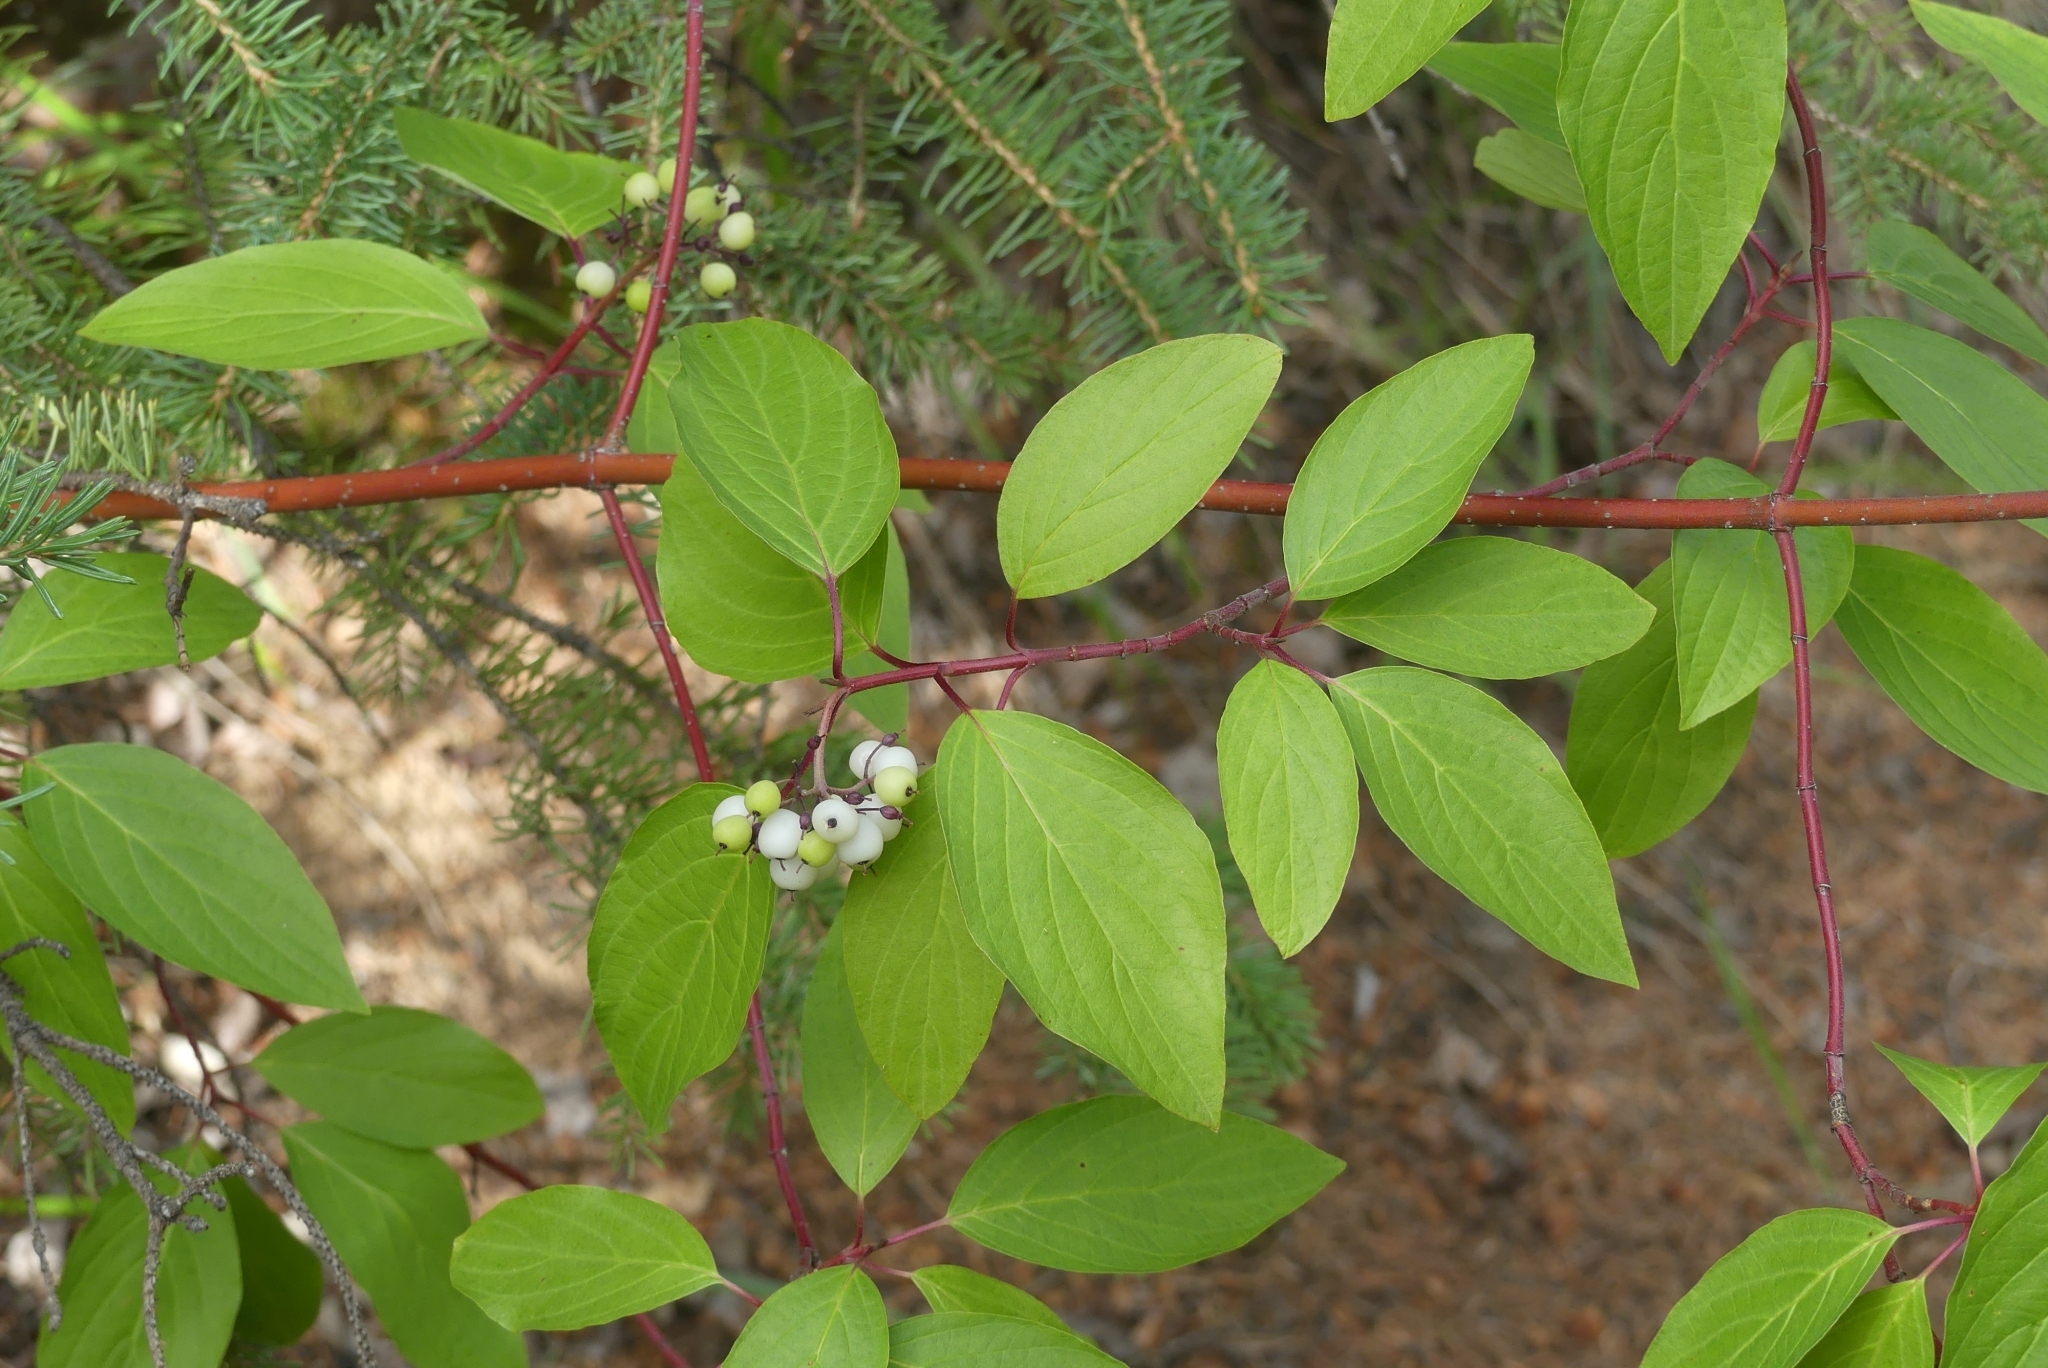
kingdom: Plantae
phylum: Tracheophyta
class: Magnoliopsida
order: Cornales
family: Cornaceae
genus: Cornus
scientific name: Cornus sericea
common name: Red-osier dogwood
